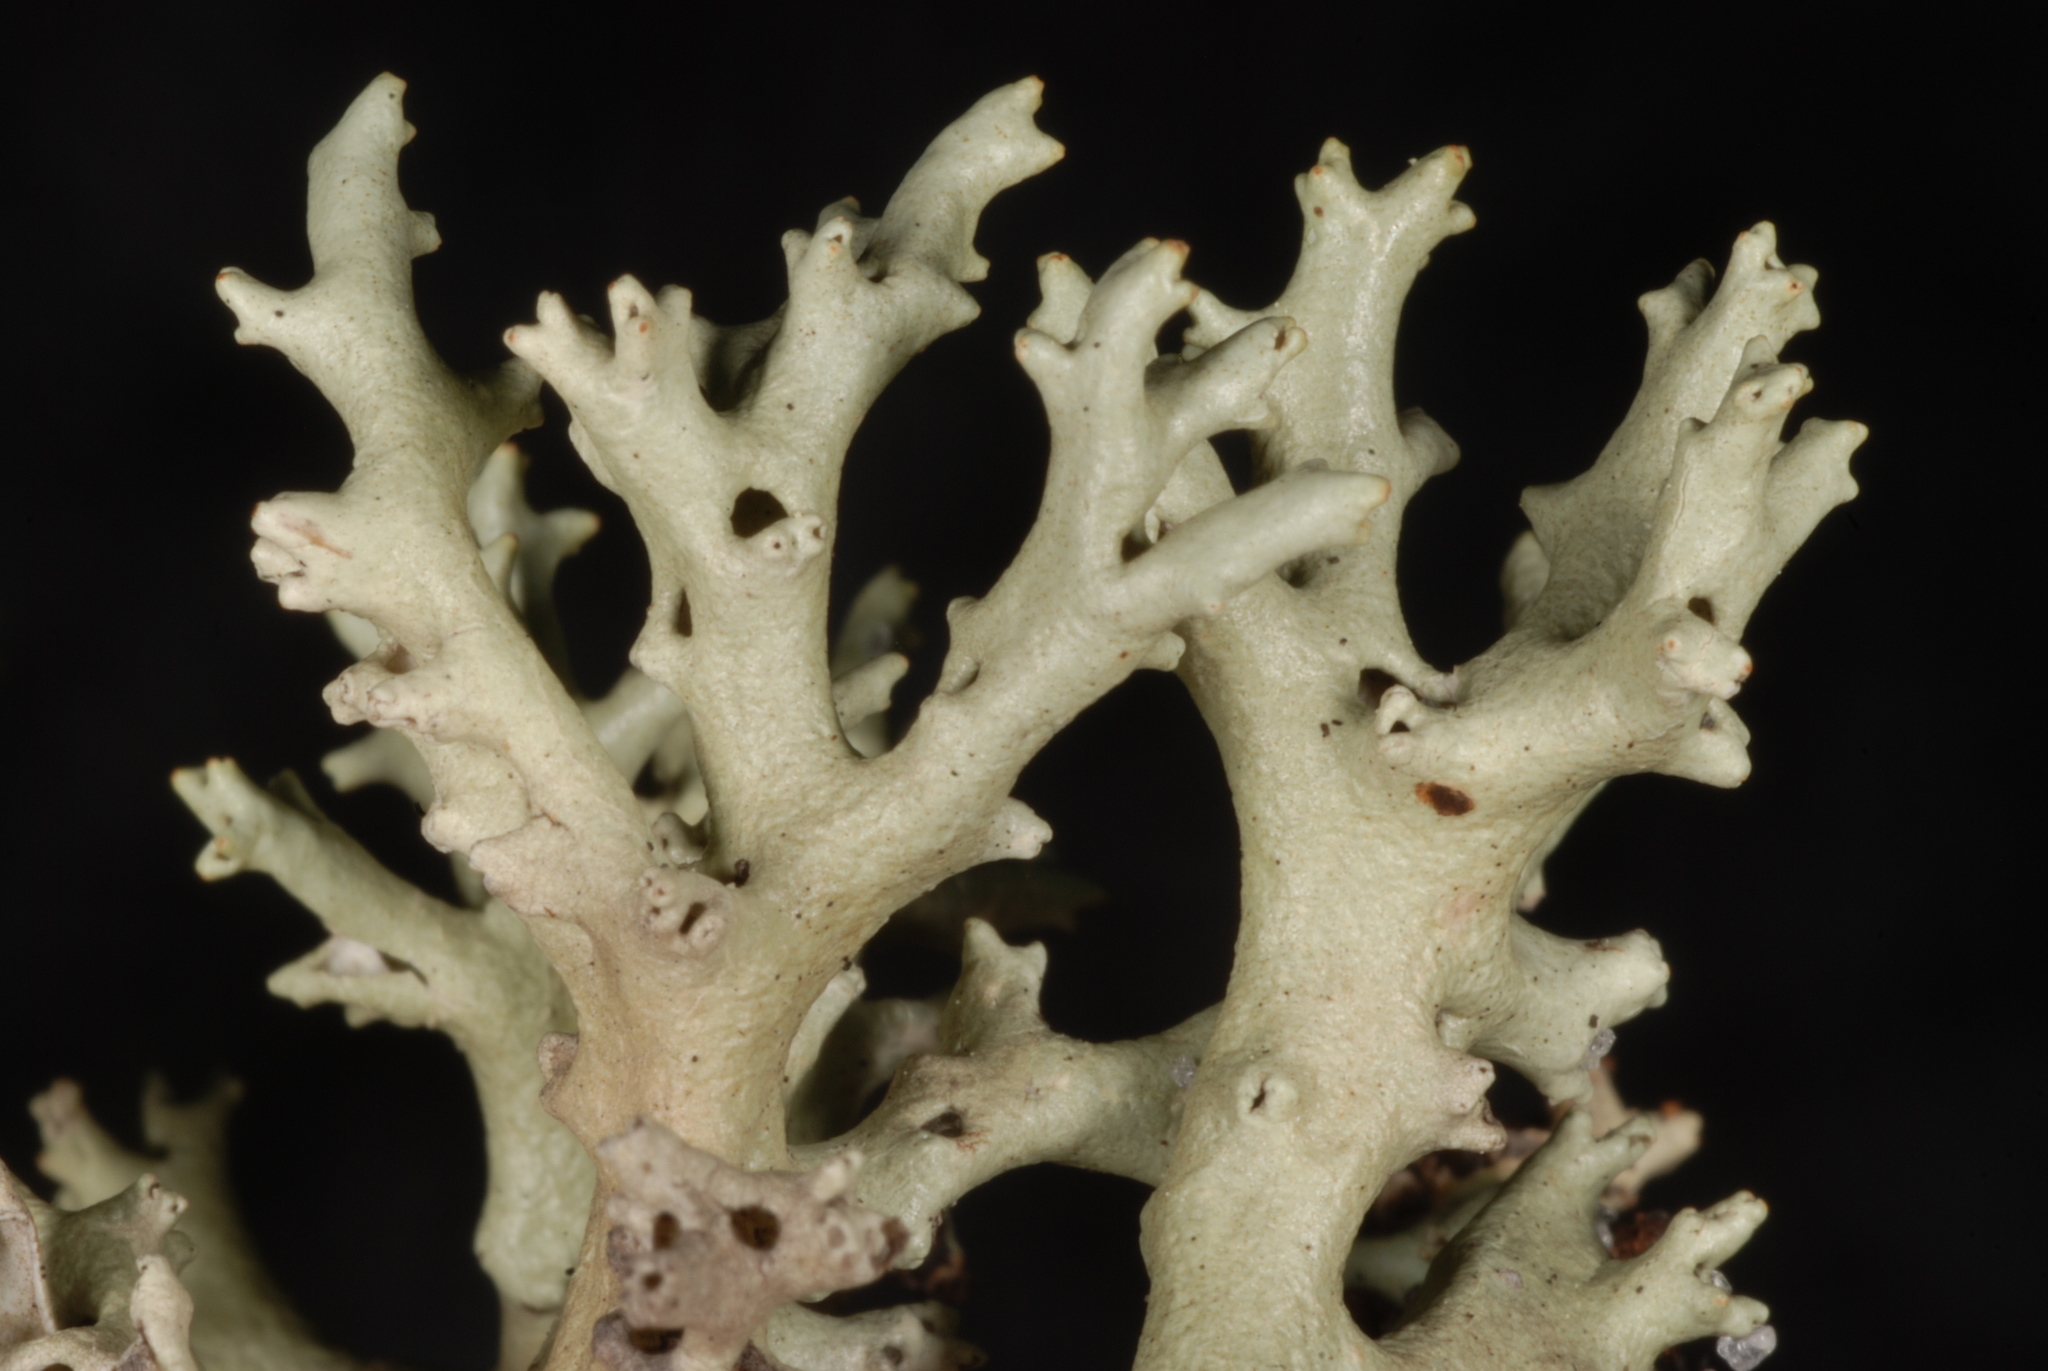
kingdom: Fungi
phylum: Ascomycota
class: Lecanoromycetes
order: Lecanorales
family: Cladoniaceae
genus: Cladonia
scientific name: Cladonia perforata
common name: Florida perforate reindeer lichen
